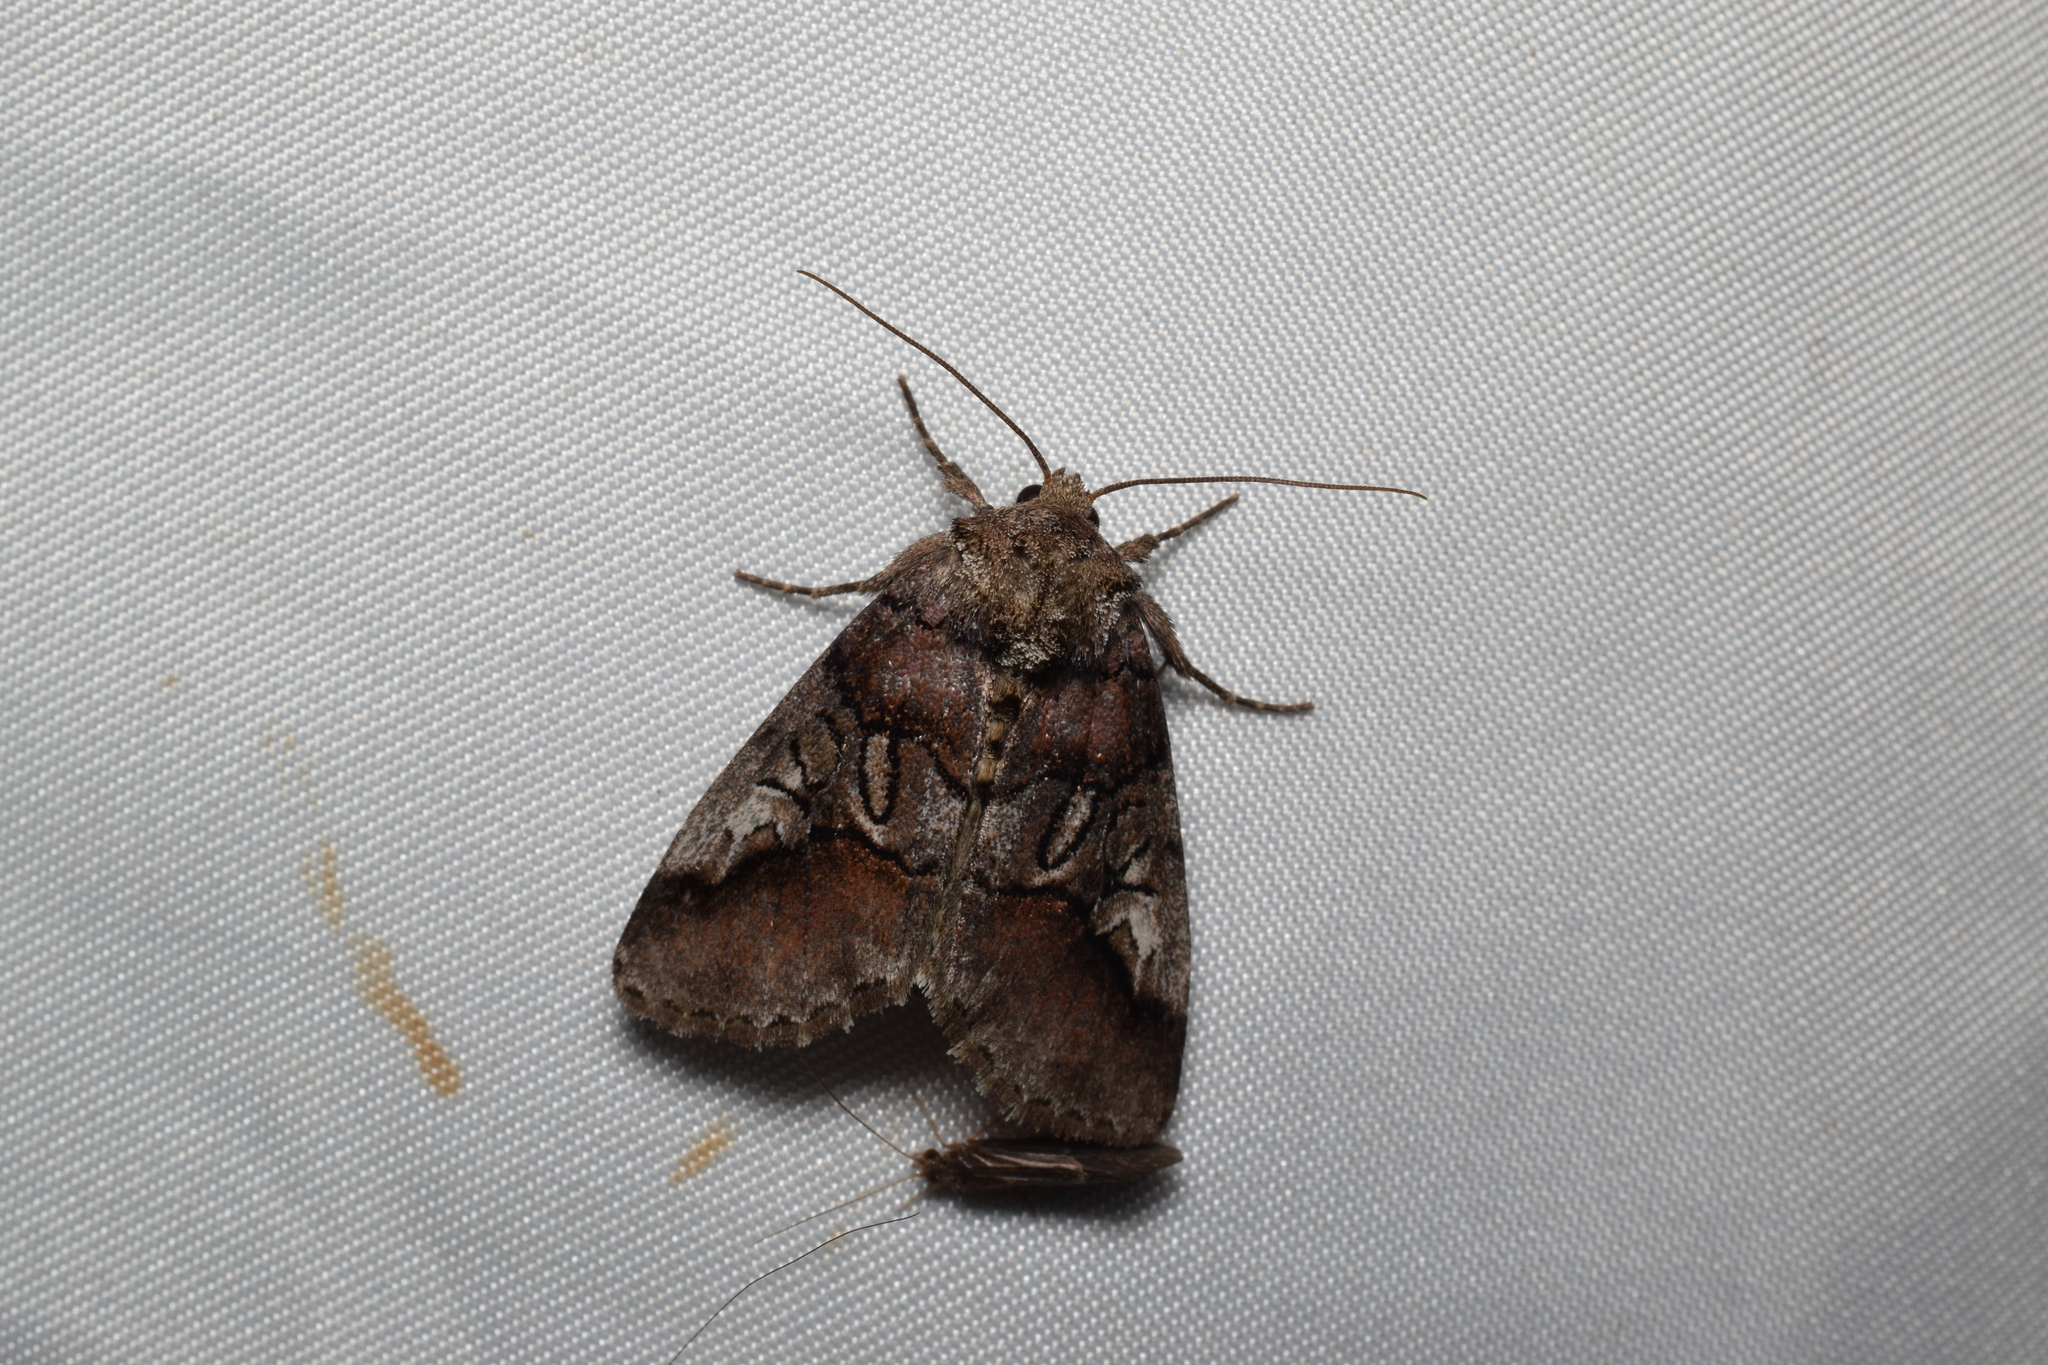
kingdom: Animalia
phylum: Arthropoda
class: Insecta
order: Lepidoptera
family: Noctuidae
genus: Protomiselia
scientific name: Protomiselia bilinea
